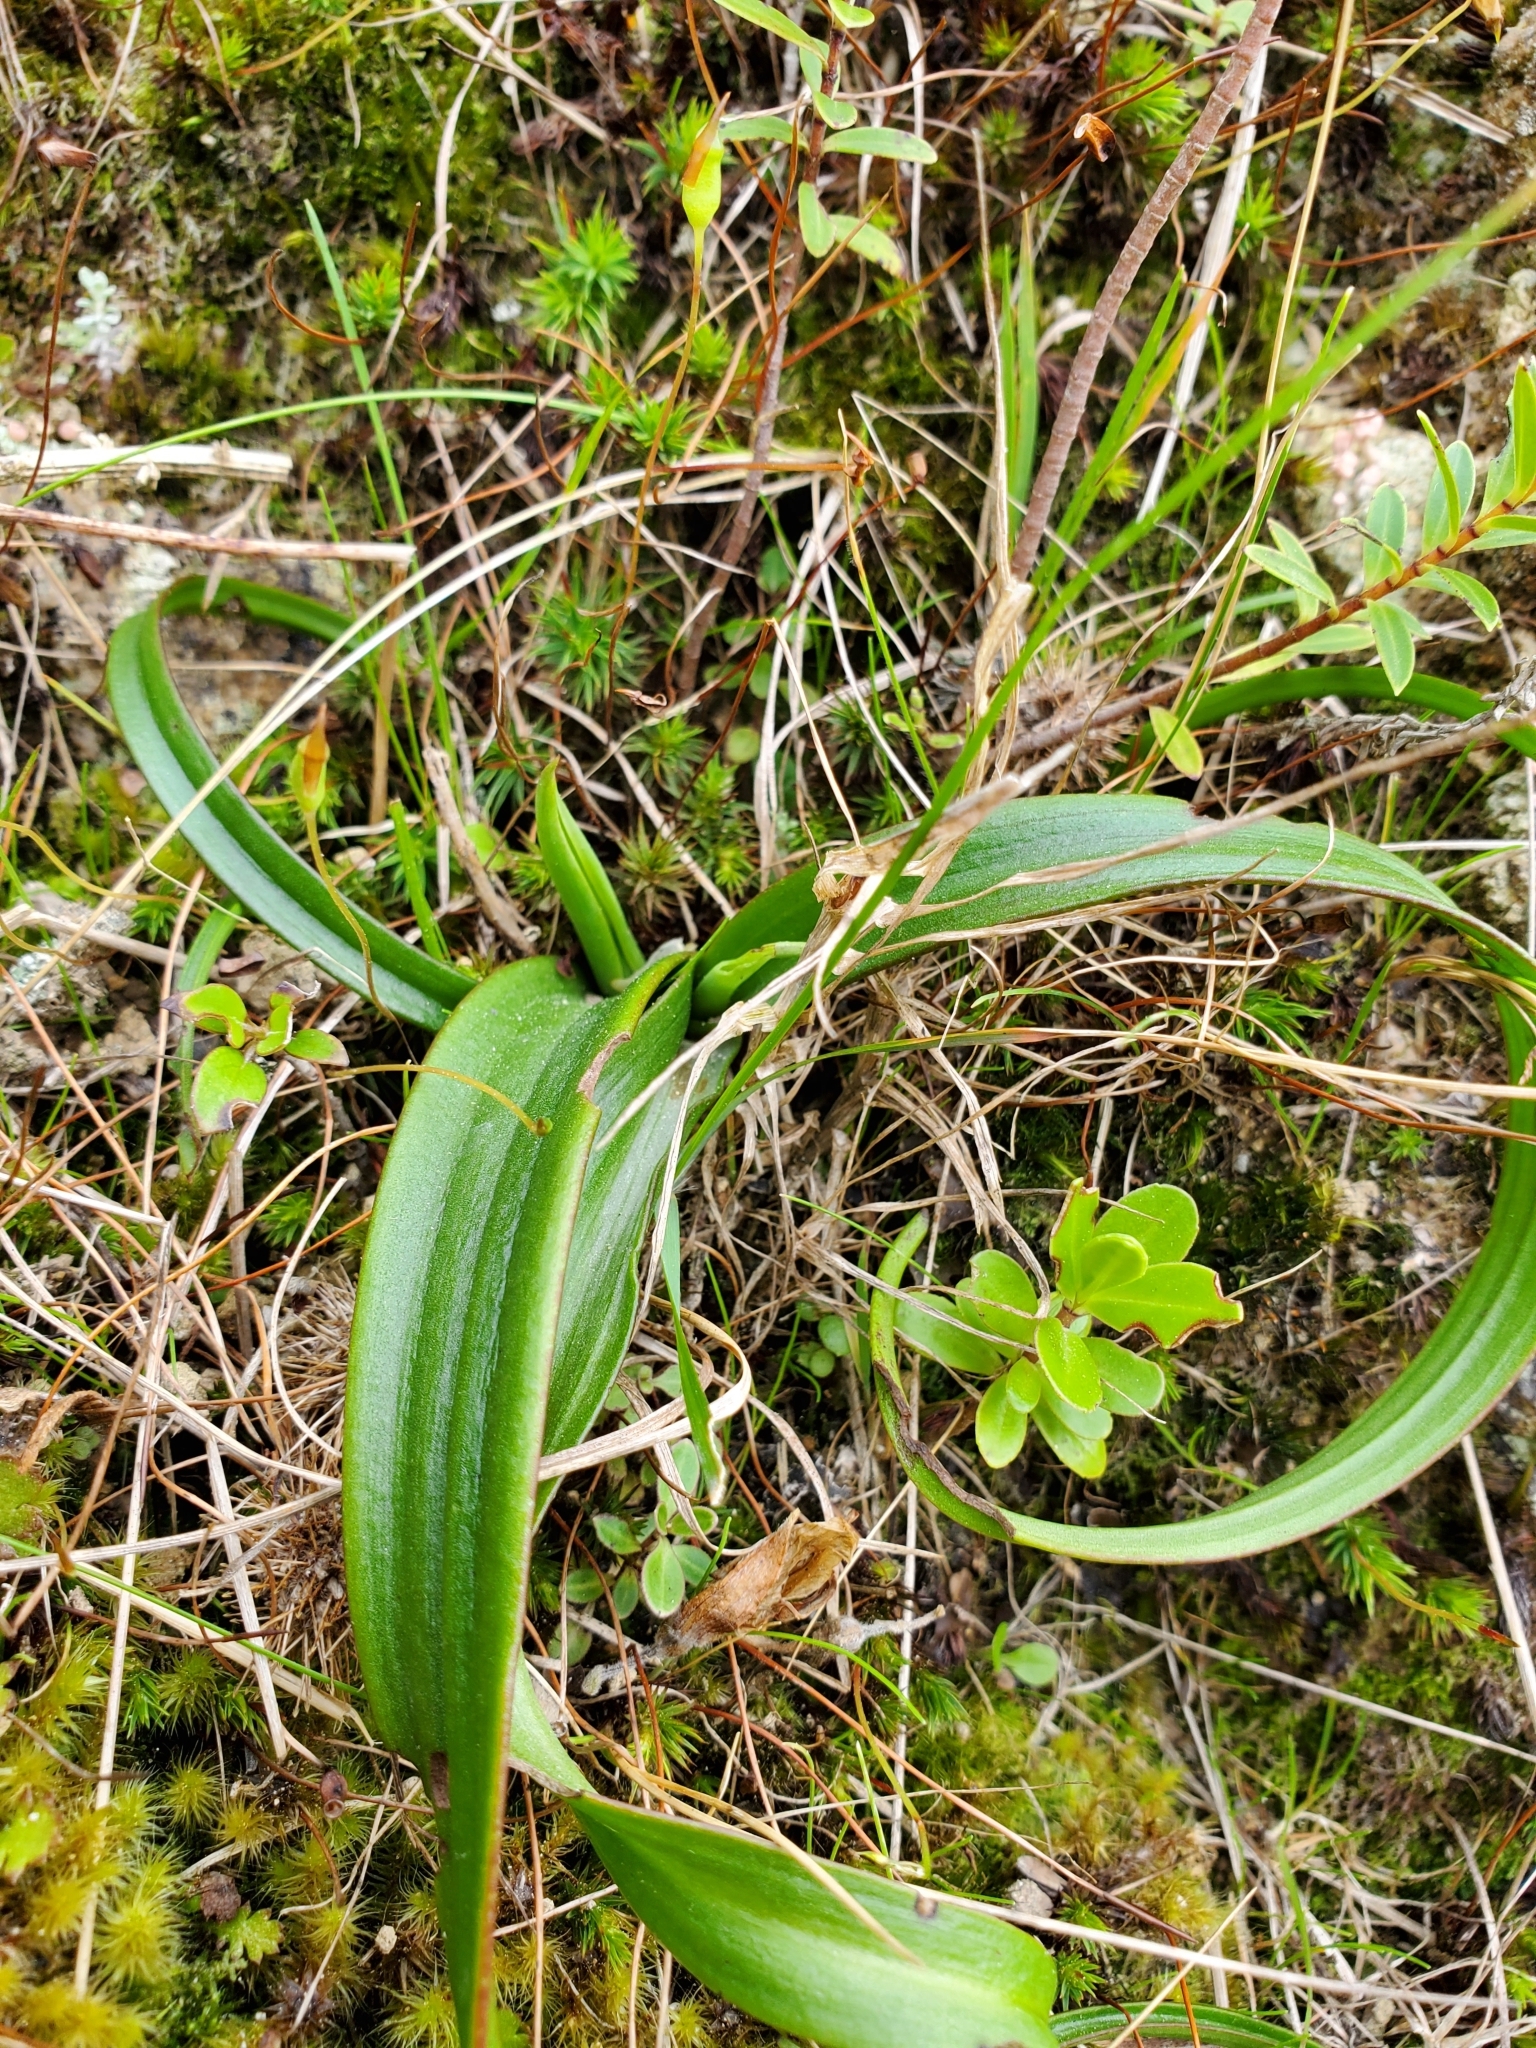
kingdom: Plantae
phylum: Tracheophyta
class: Liliopsida
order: Asparagales
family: Orchidaceae
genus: Thelymitra
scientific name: Thelymitra longifolia
